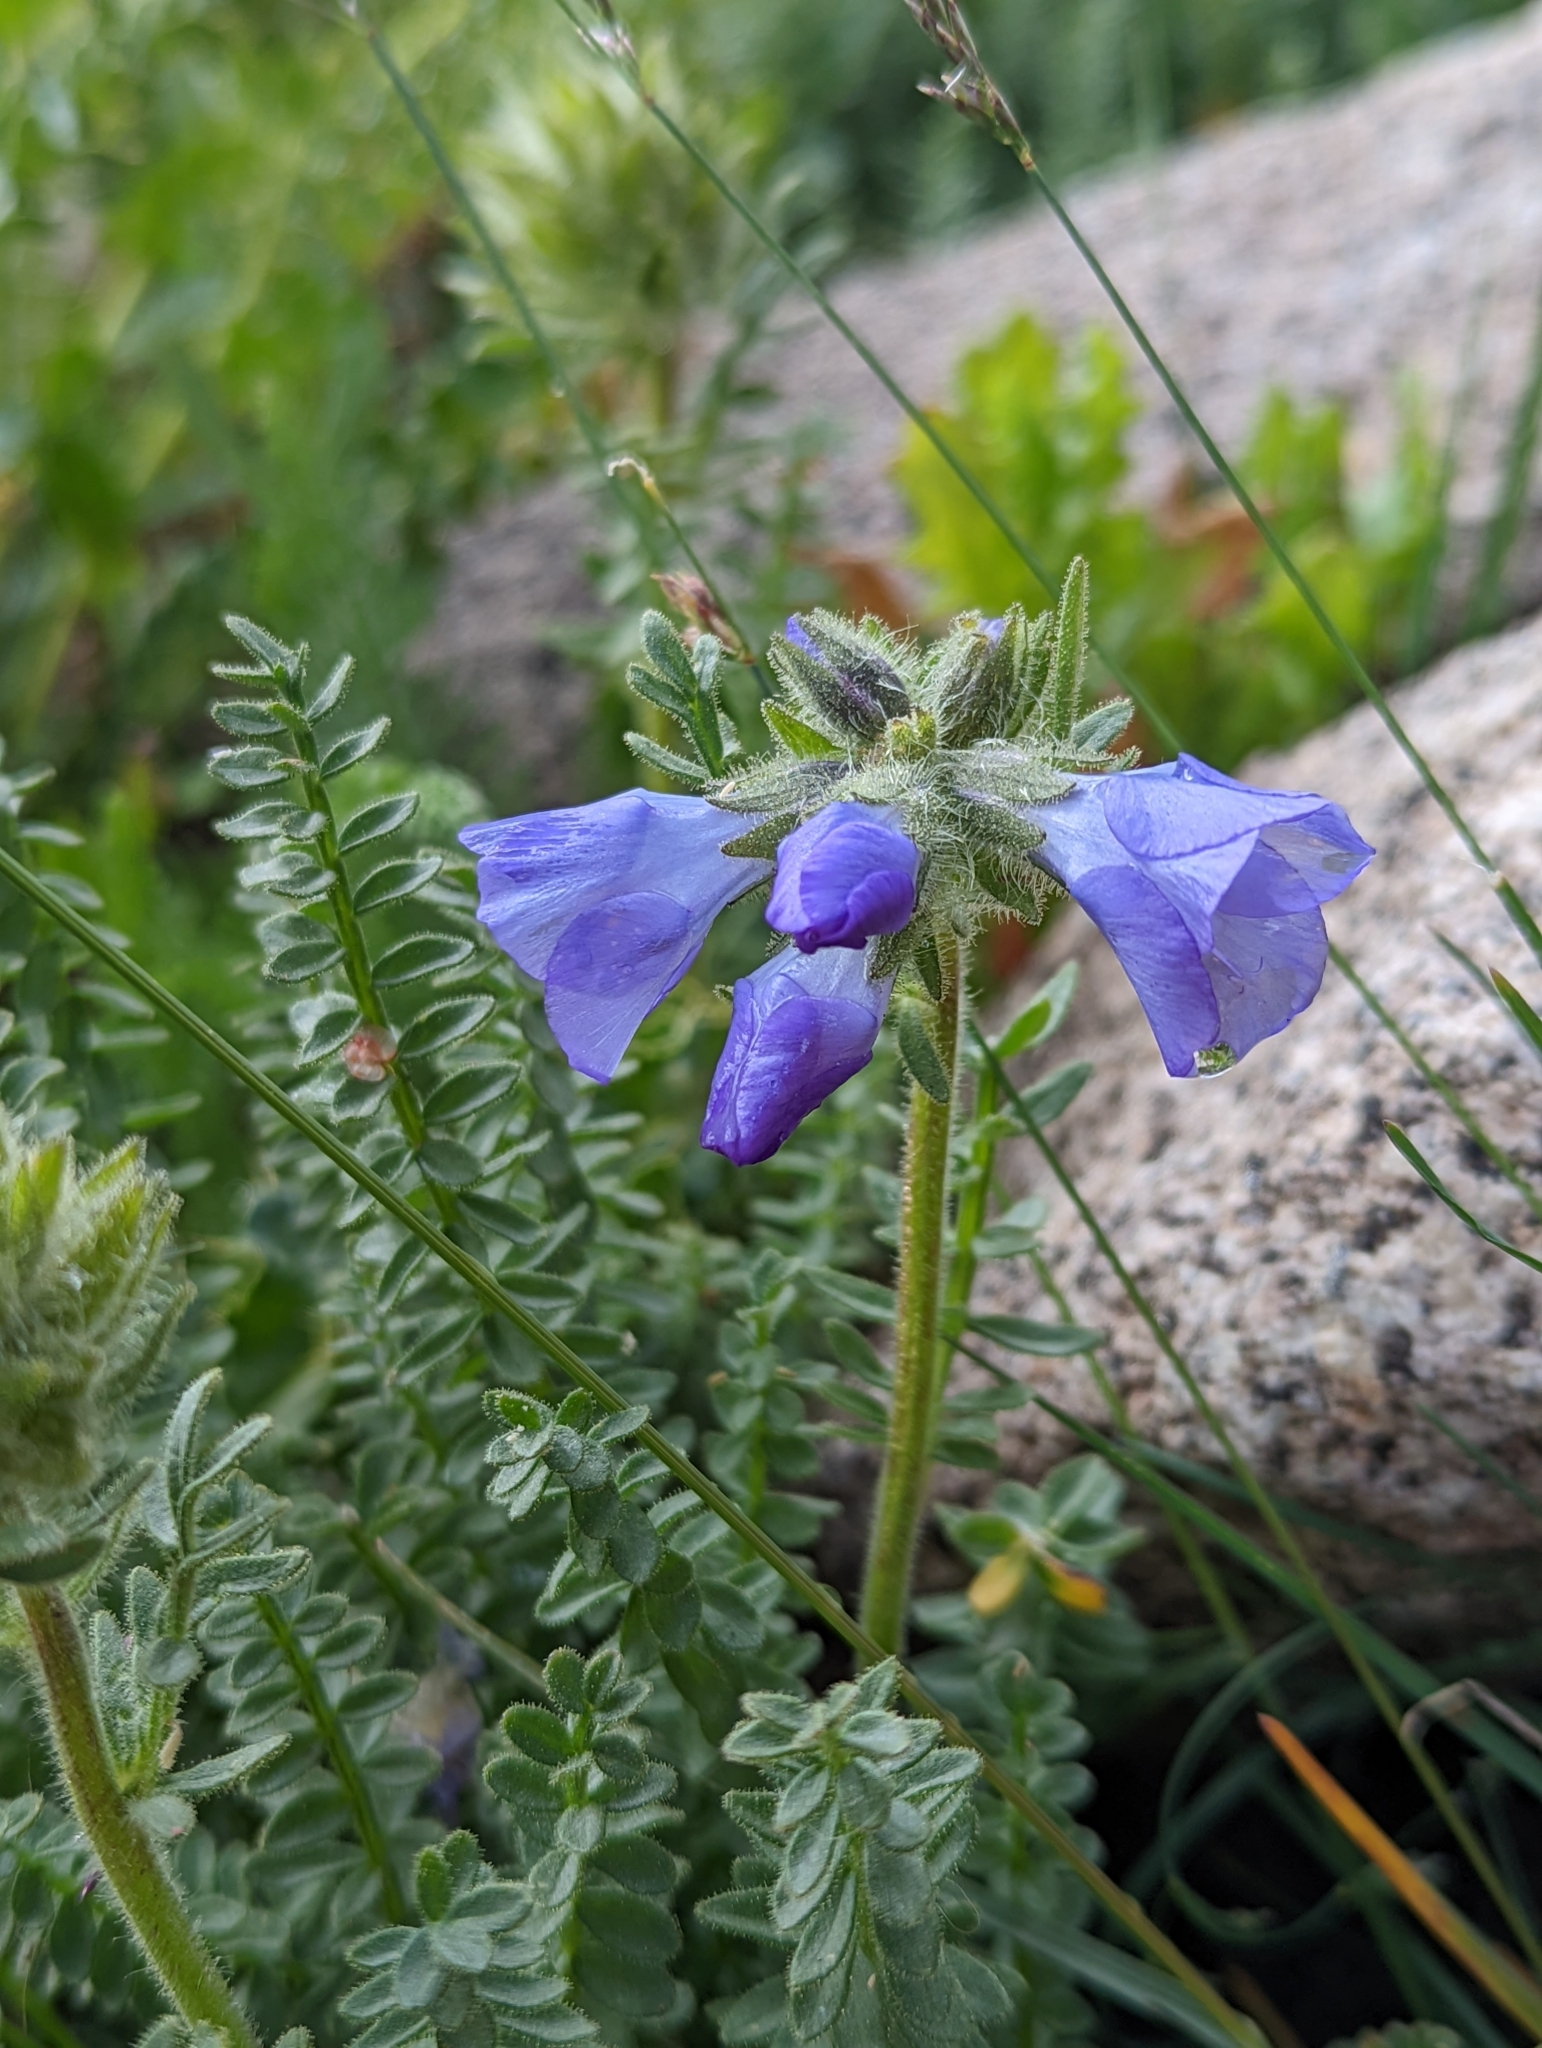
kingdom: Plantae
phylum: Tracheophyta
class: Magnoliopsida
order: Ericales
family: Polemoniaceae
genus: Polemonium
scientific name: Polemonium viscosum
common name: Skunk jacob's-ladder
